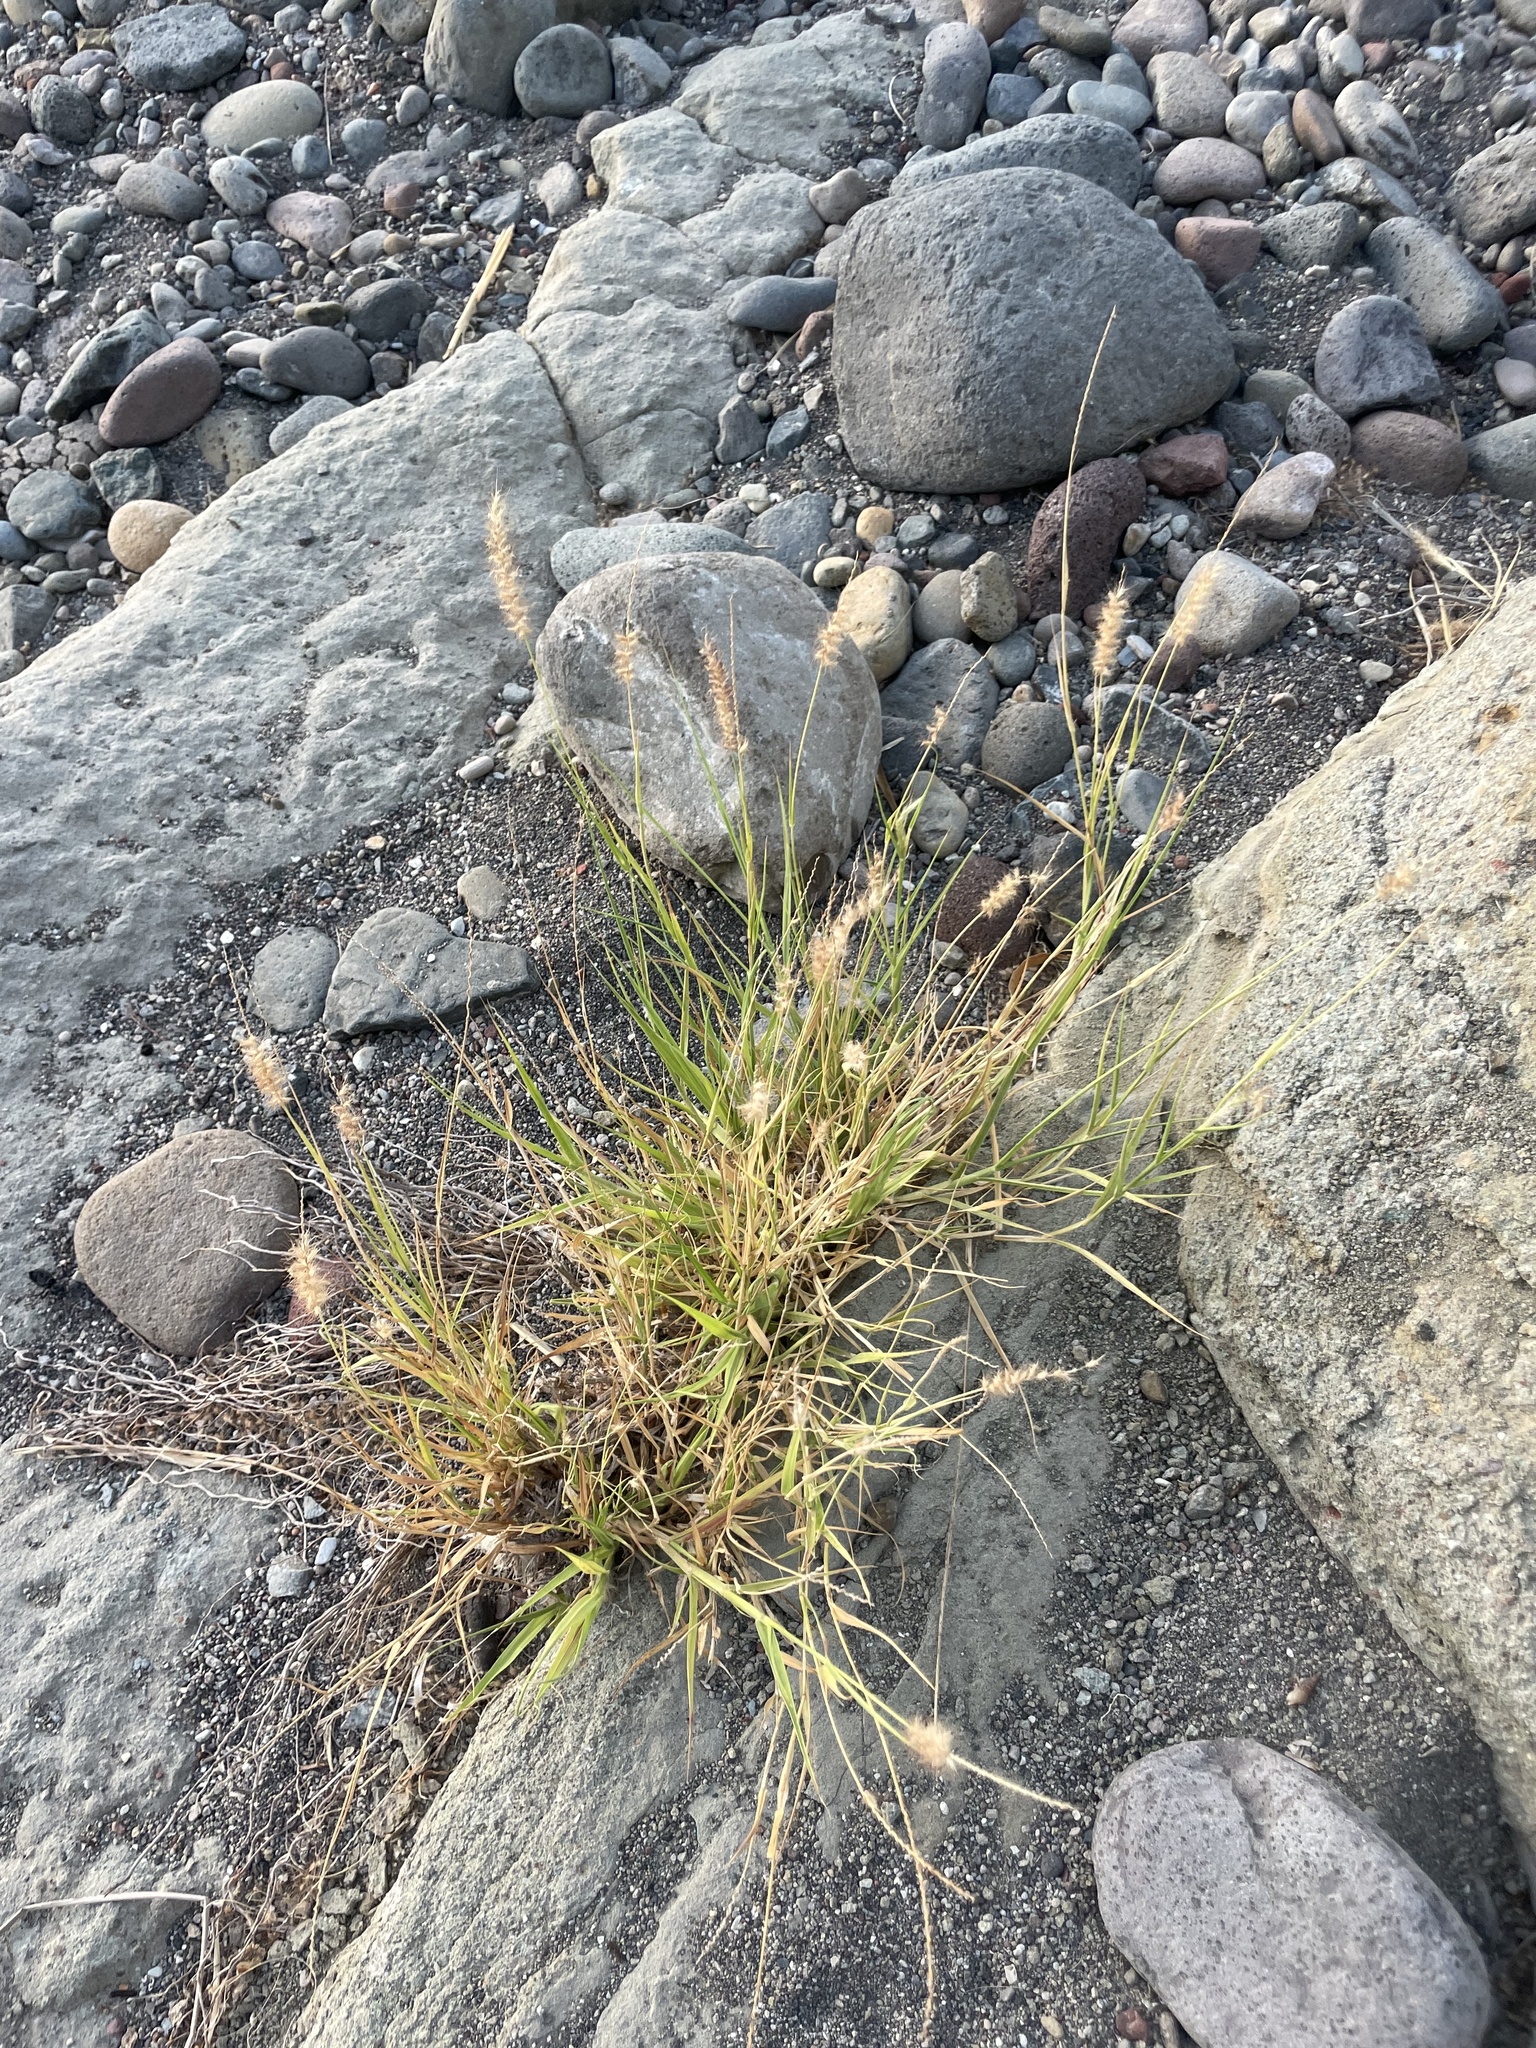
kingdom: Plantae
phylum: Tracheophyta
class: Liliopsida
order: Poales
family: Poaceae
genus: Cenchrus
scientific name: Cenchrus ciliaris
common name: Buffelgrass
